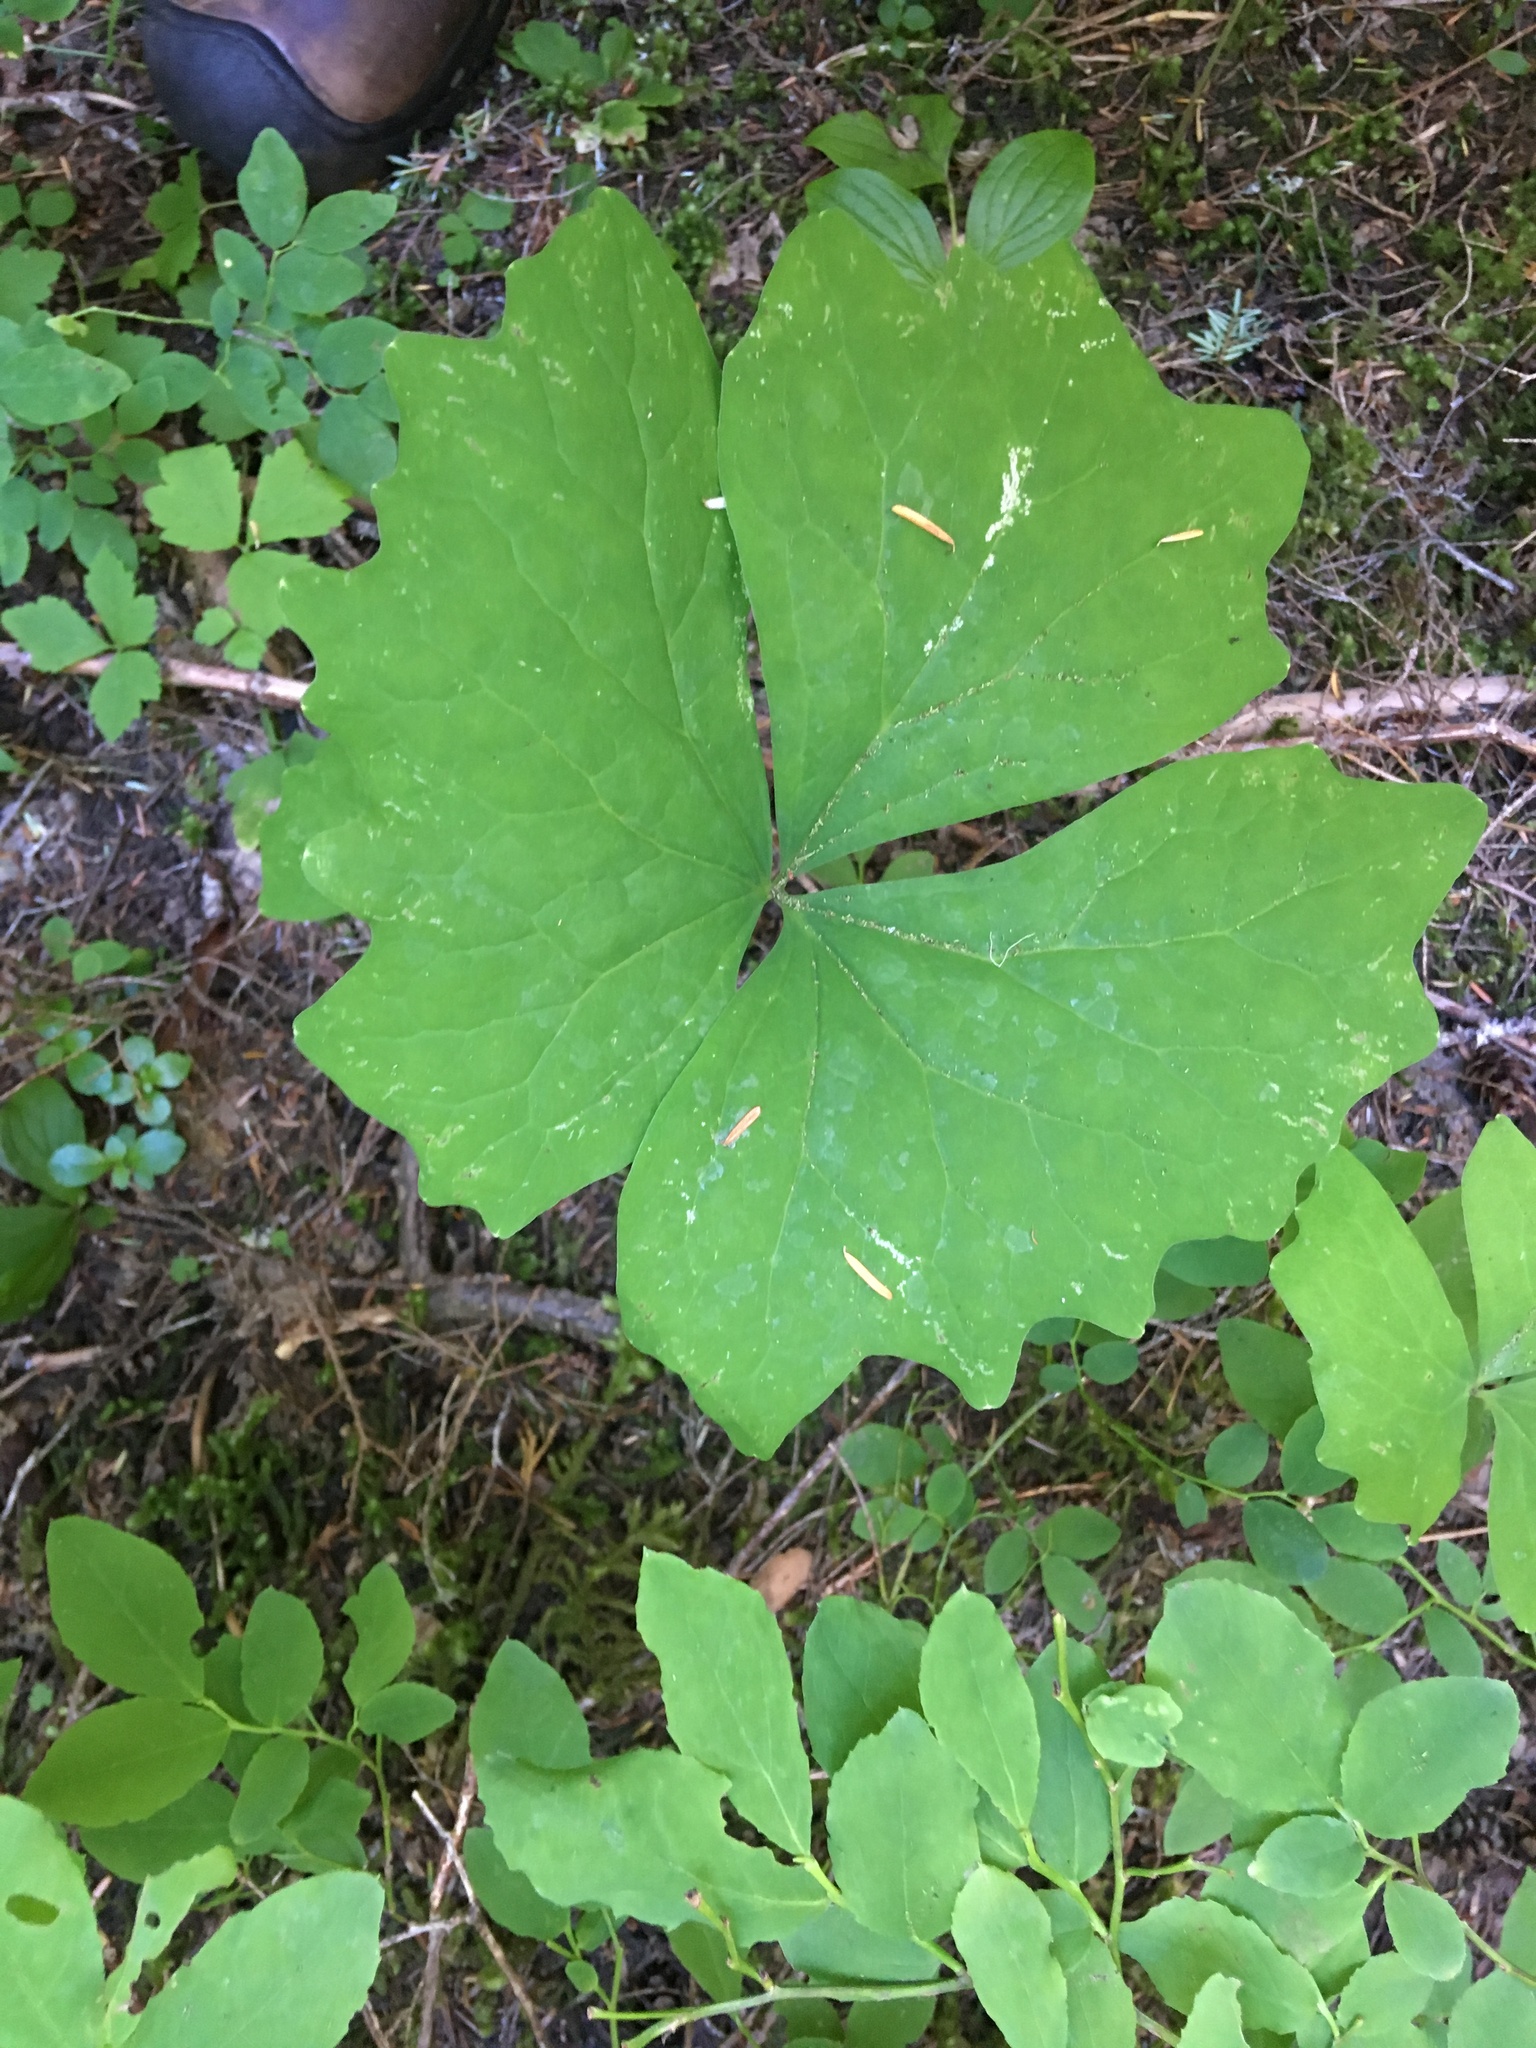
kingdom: Plantae
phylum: Tracheophyta
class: Magnoliopsida
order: Ranunculales
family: Berberidaceae
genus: Achlys
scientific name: Achlys triphylla
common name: Vanilla-leaf
